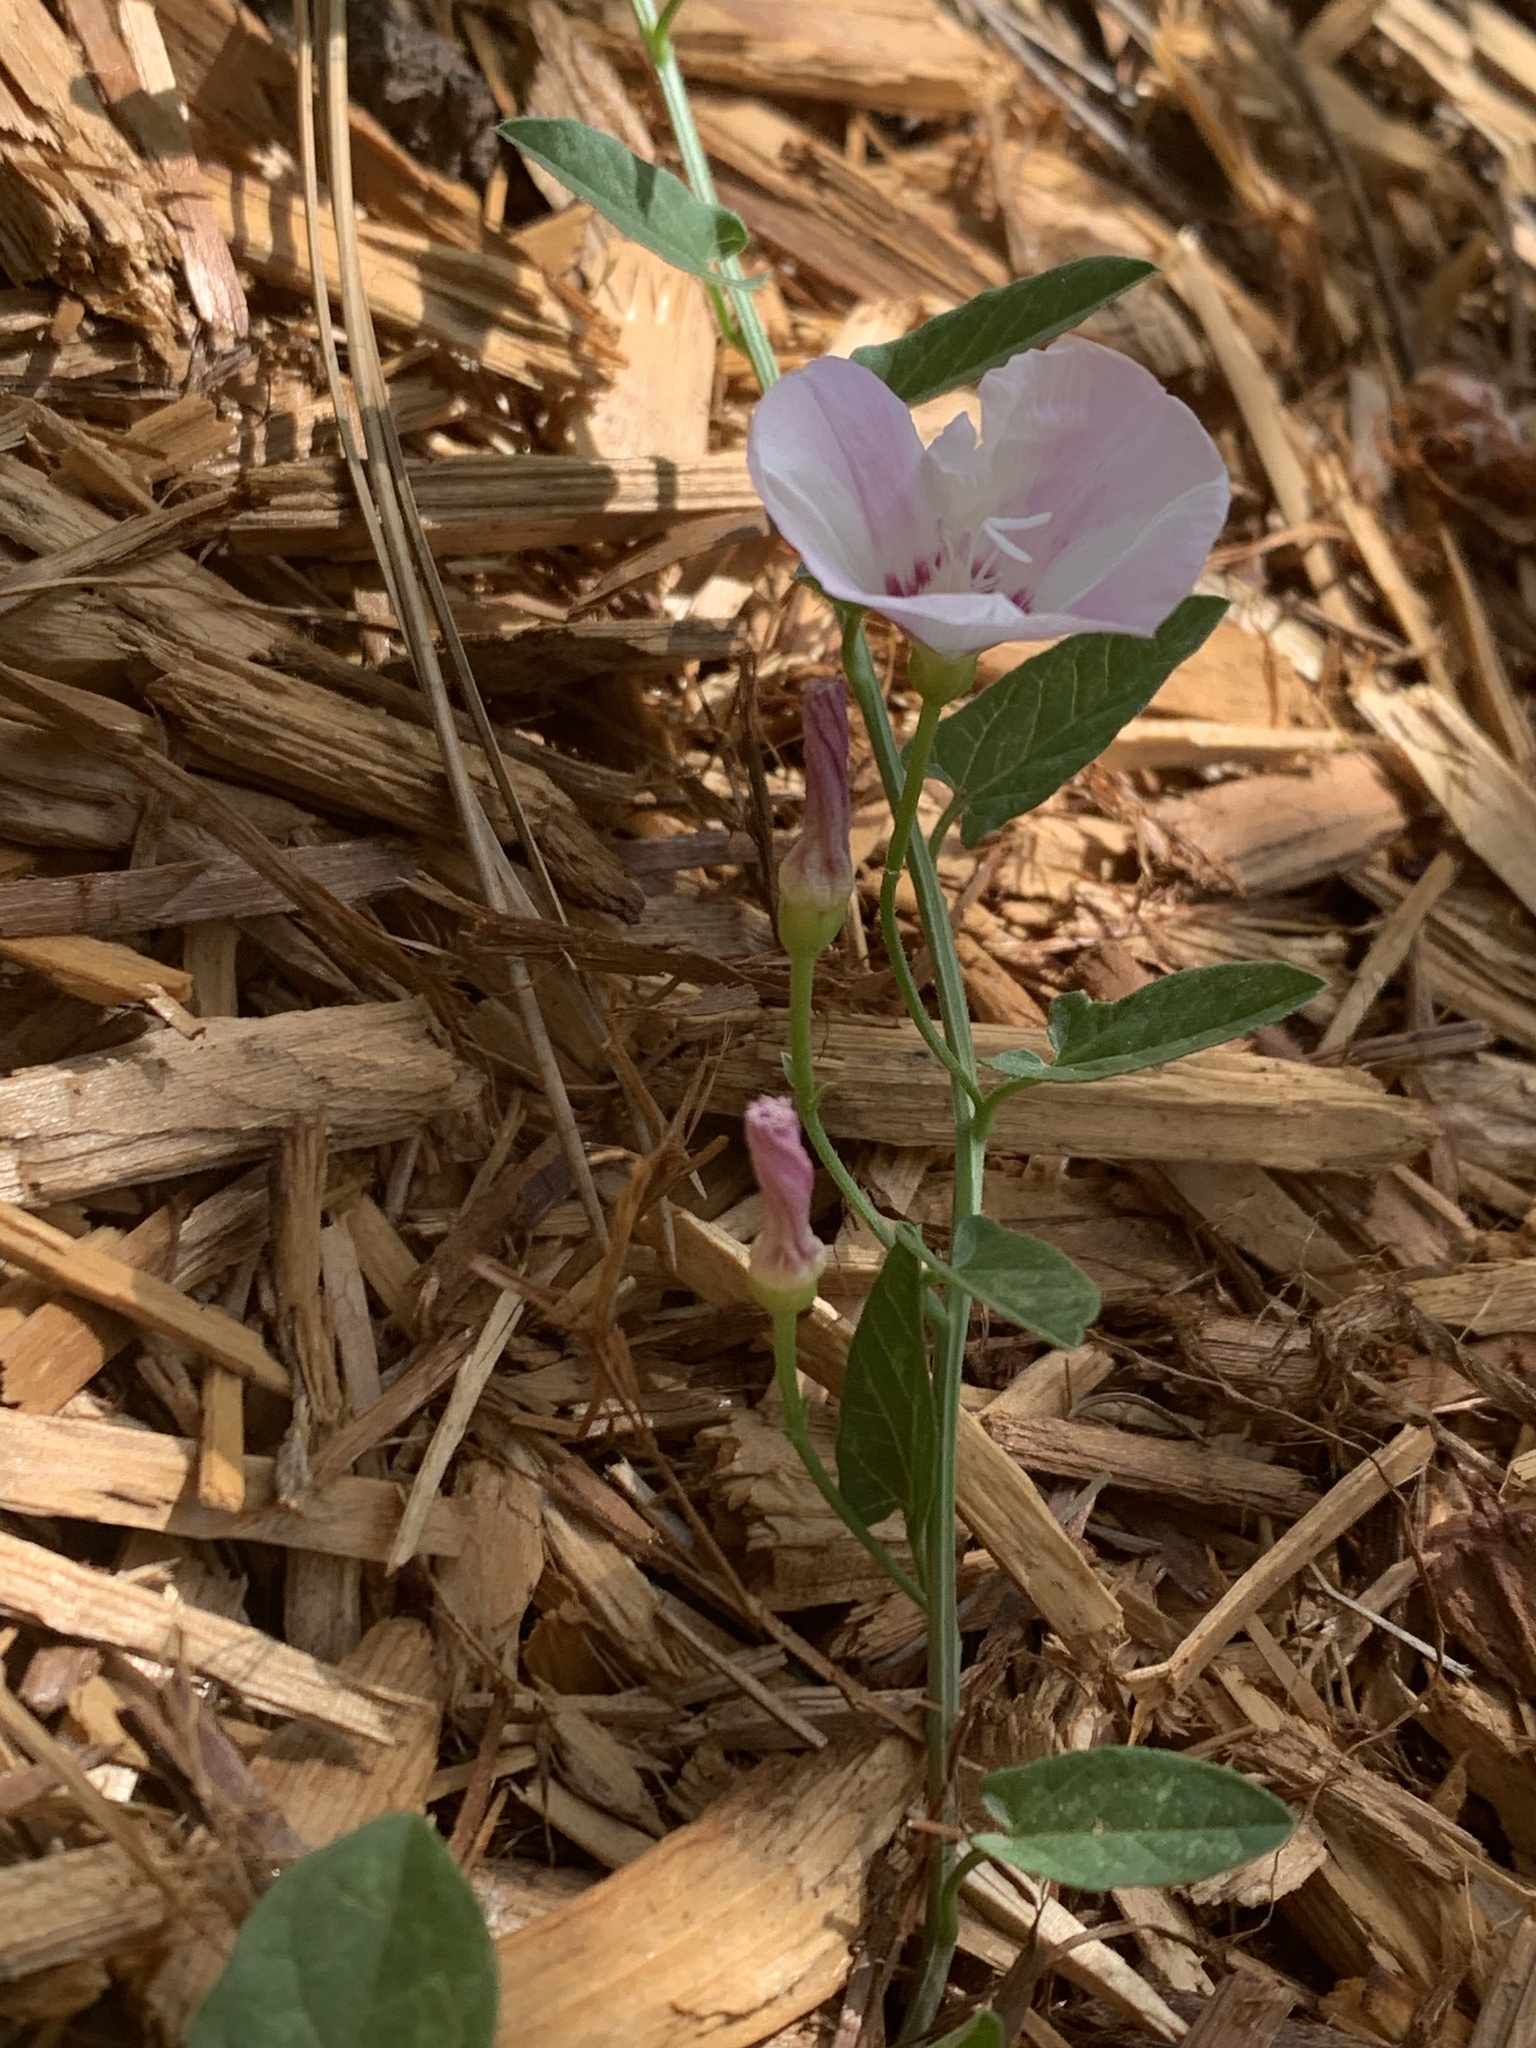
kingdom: Plantae
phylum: Tracheophyta
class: Magnoliopsida
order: Solanales
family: Convolvulaceae
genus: Convolvulus
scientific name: Convolvulus arvensis
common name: Field bindweed
